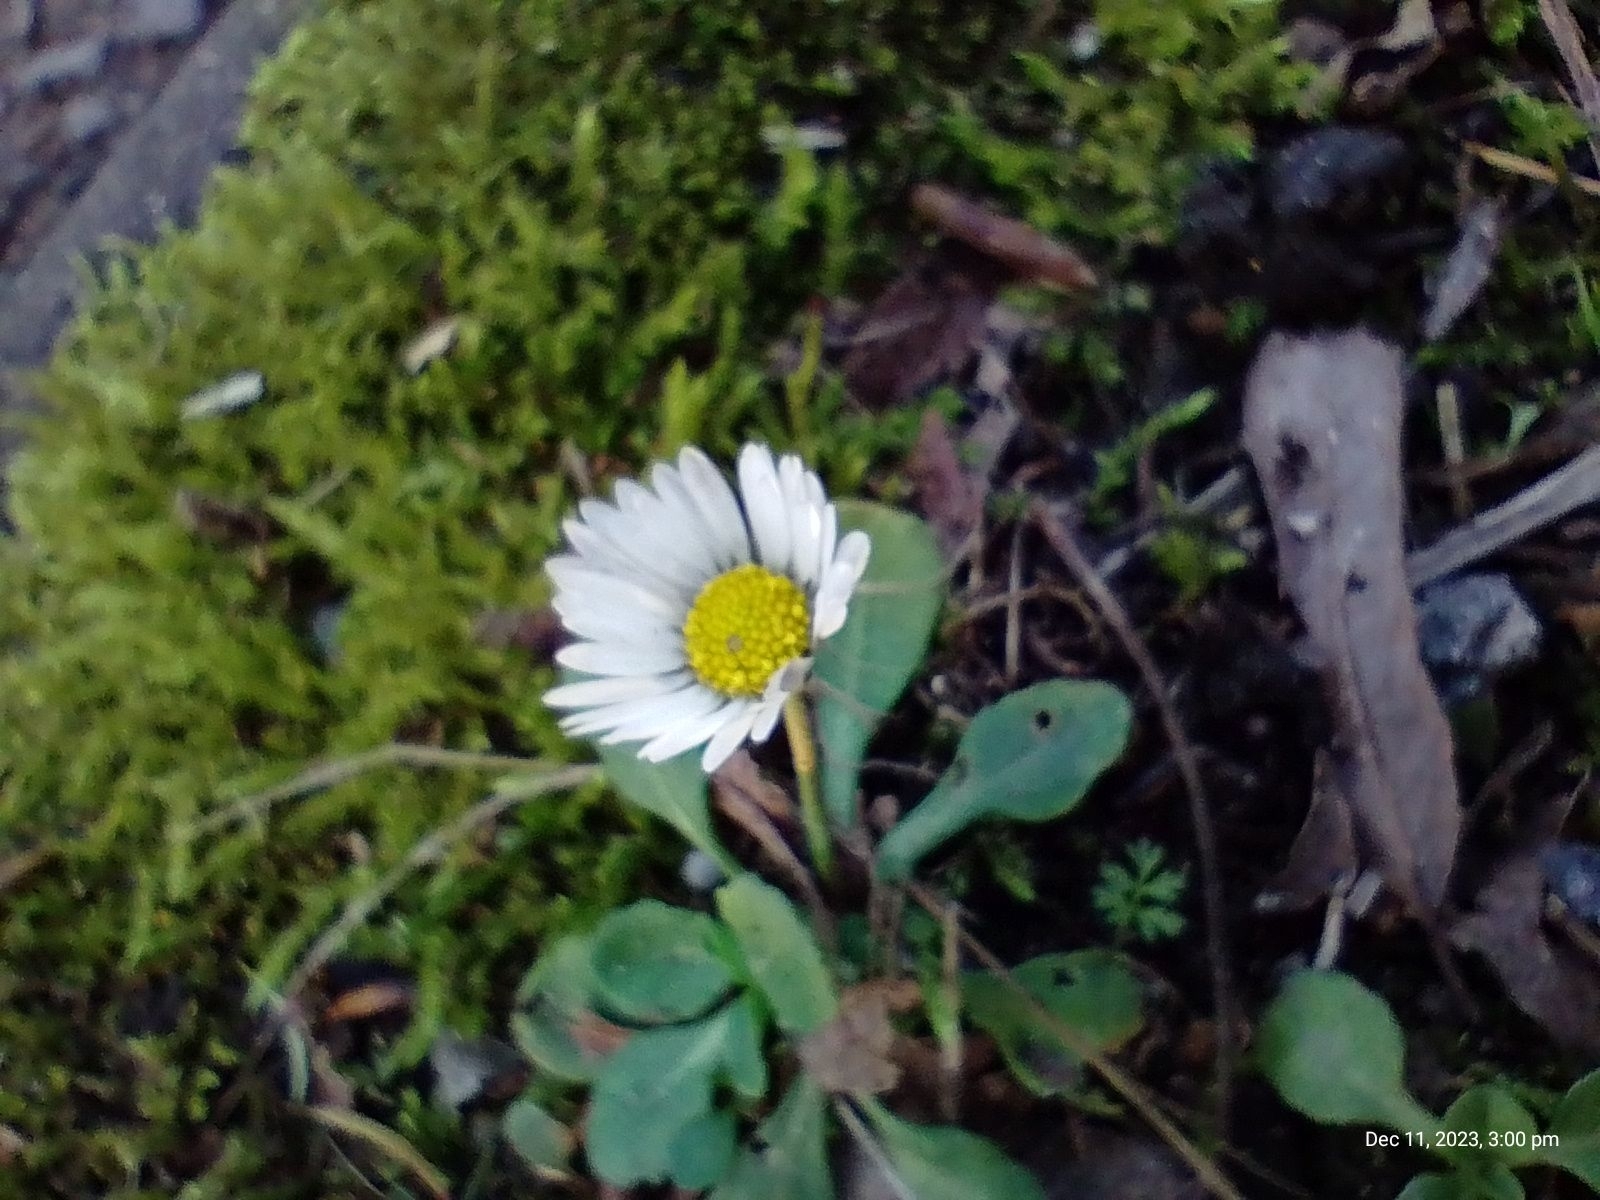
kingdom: Plantae
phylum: Tracheophyta
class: Magnoliopsida
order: Asterales
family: Asteraceae
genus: Bellis
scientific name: Bellis perennis
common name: Lawndaisy
